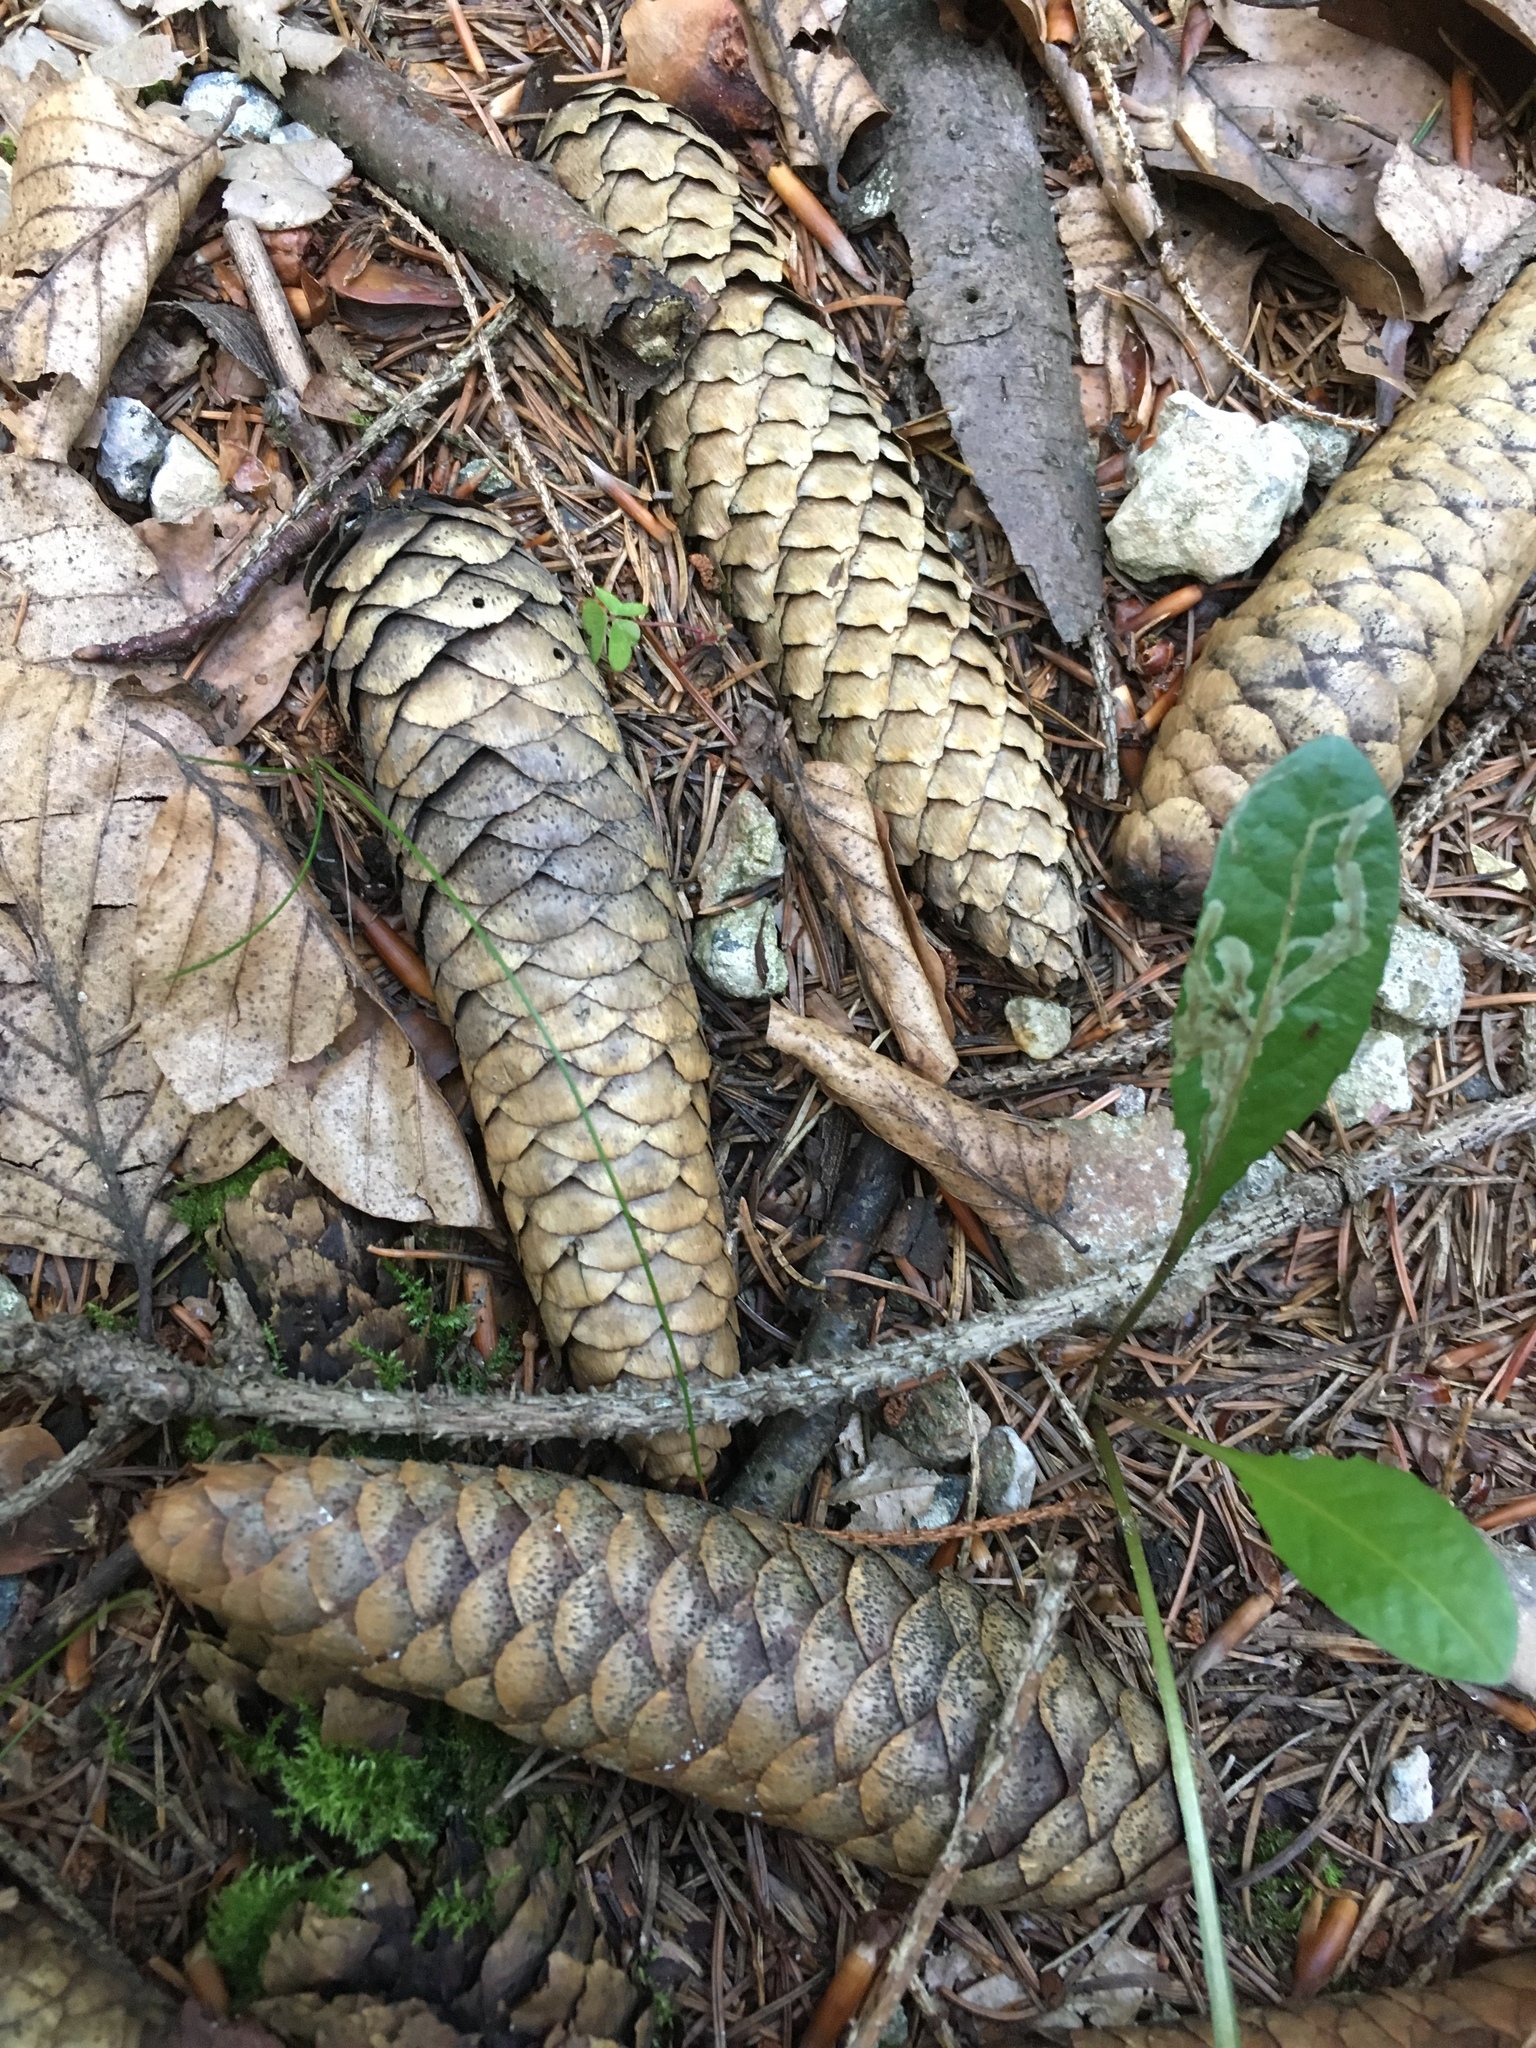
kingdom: Plantae
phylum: Tracheophyta
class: Pinopsida
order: Pinales
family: Pinaceae
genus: Picea
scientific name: Picea abies
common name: Norway spruce
